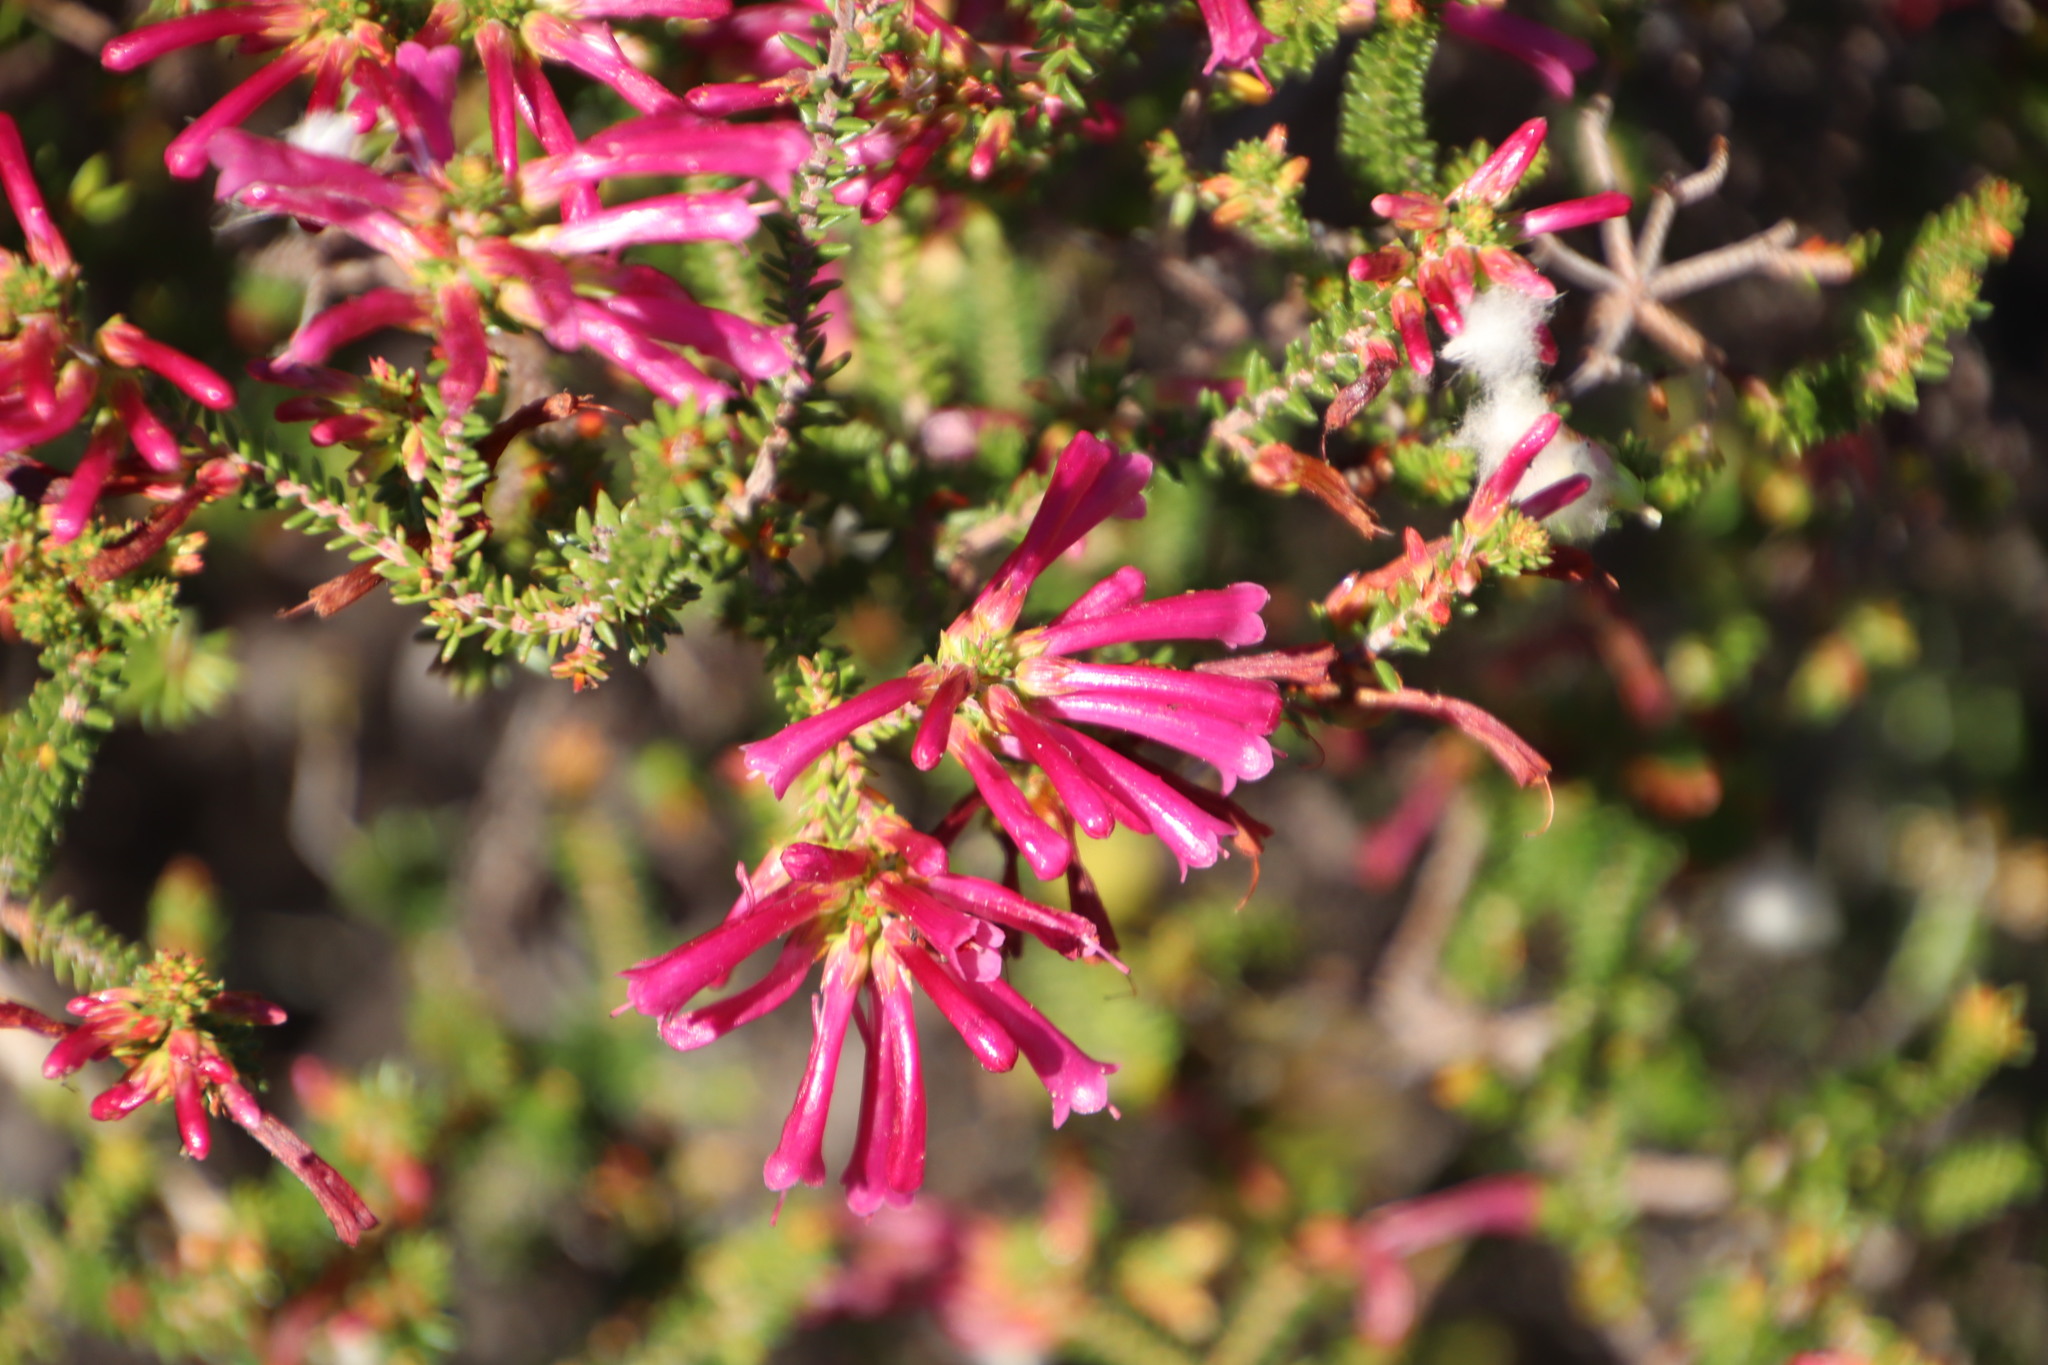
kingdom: Plantae
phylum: Tracheophyta
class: Magnoliopsida
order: Ericales
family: Ericaceae
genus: Erica
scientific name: Erica abietina
